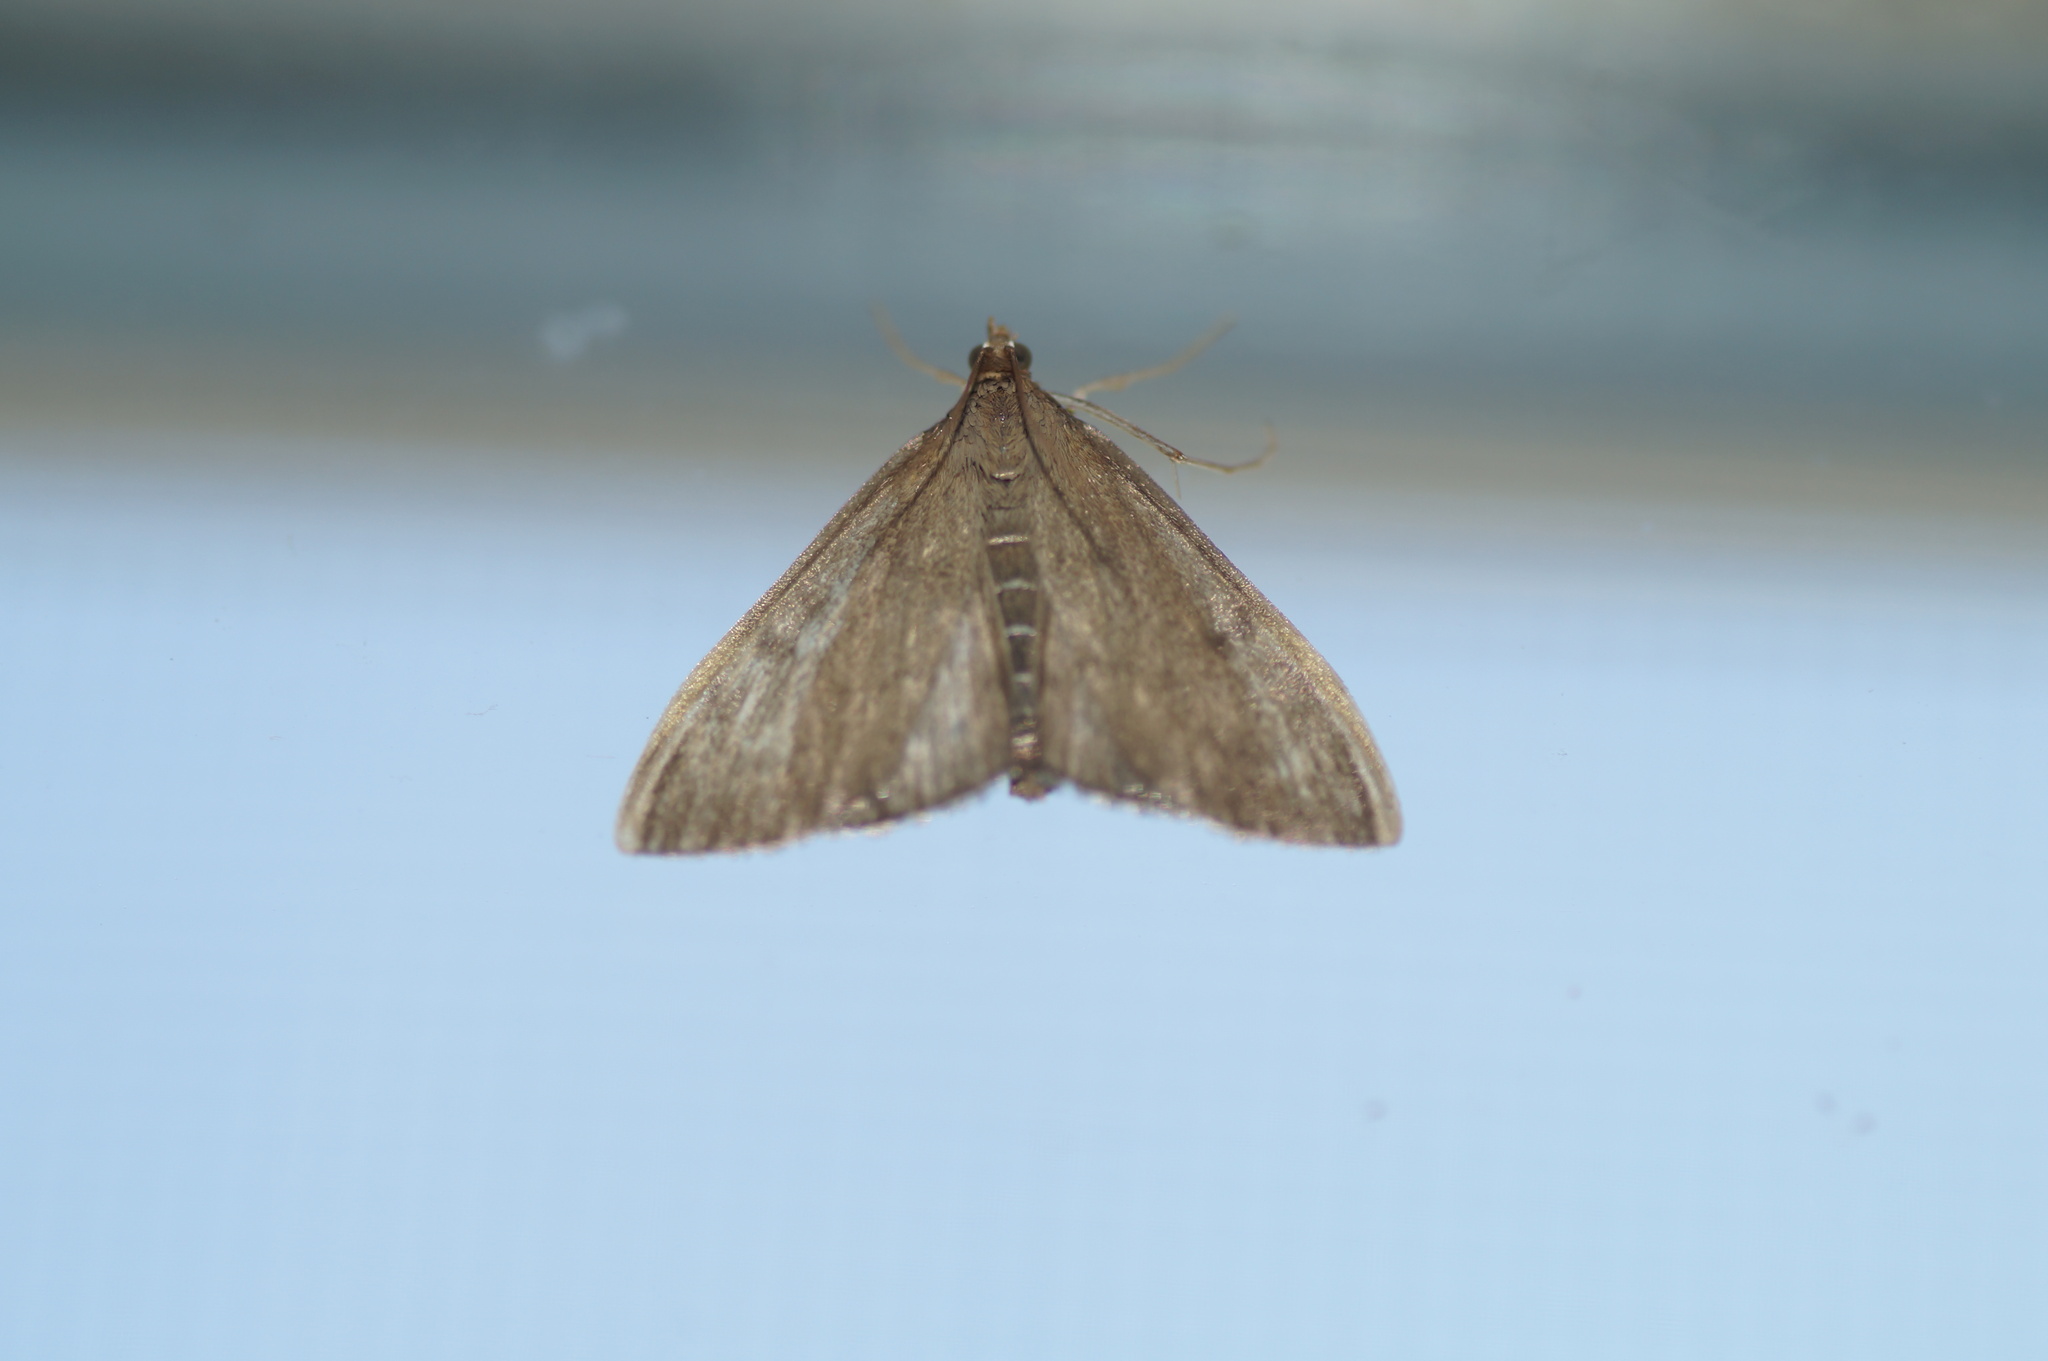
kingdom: Animalia
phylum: Arthropoda
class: Insecta
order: Lepidoptera
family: Crambidae
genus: Anania
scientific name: Anania terrealis
